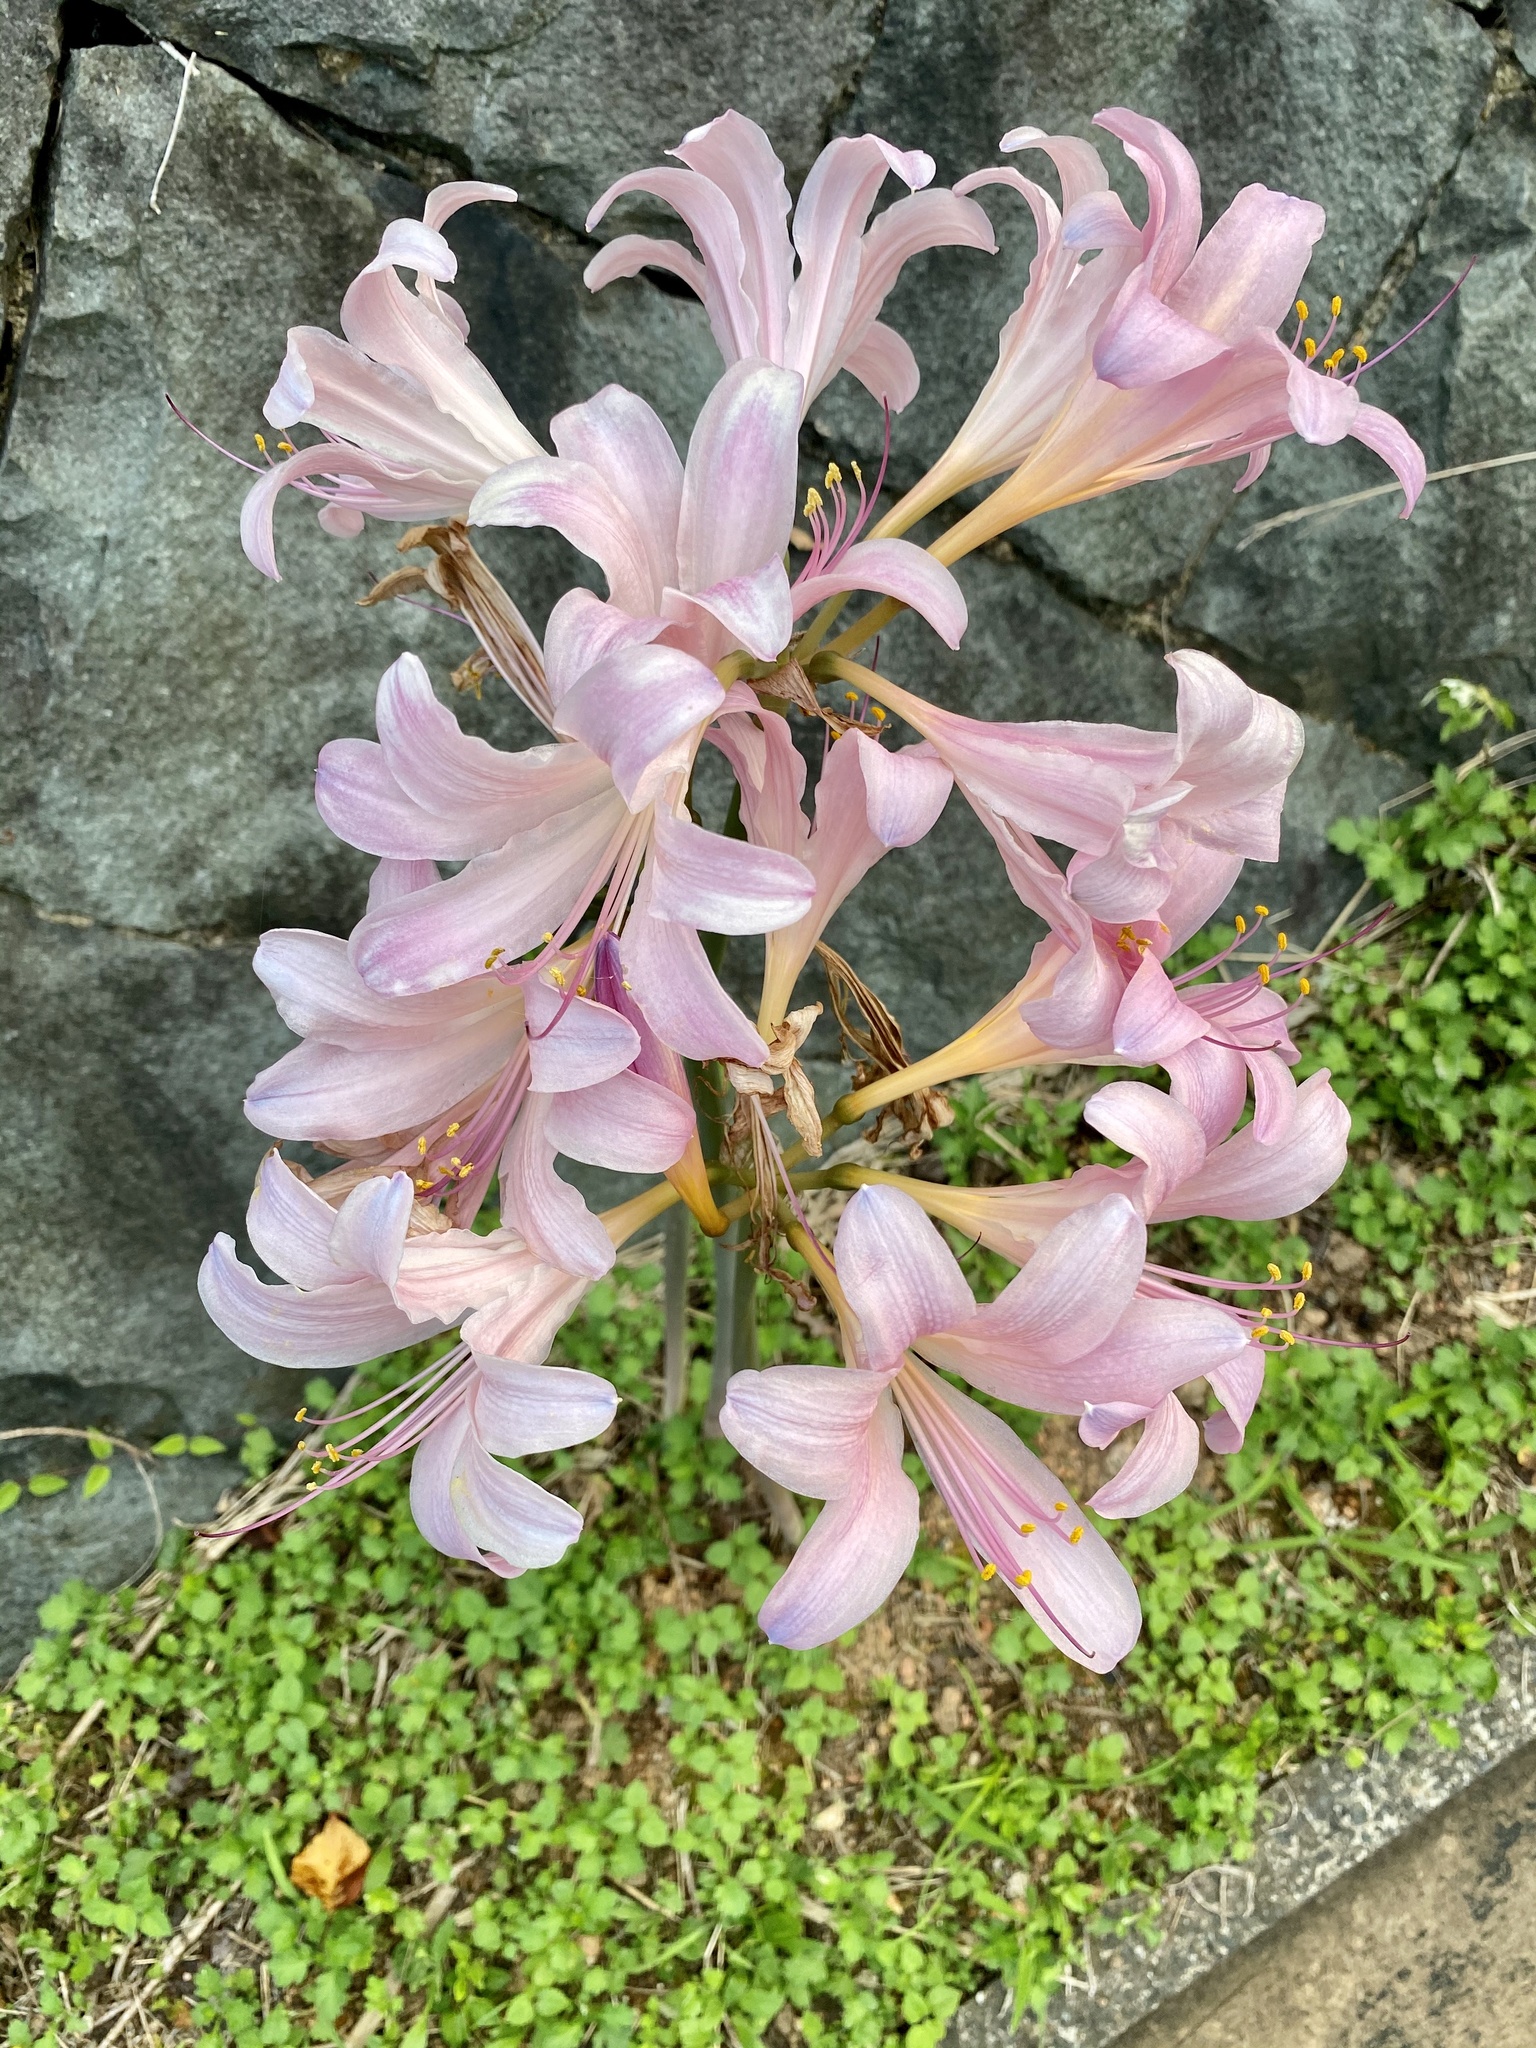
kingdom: Plantae
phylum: Tracheophyta
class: Liliopsida
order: Asparagales
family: Amaryllidaceae
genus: Lycoris
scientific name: Lycoris squamigera
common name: Magic-lily
